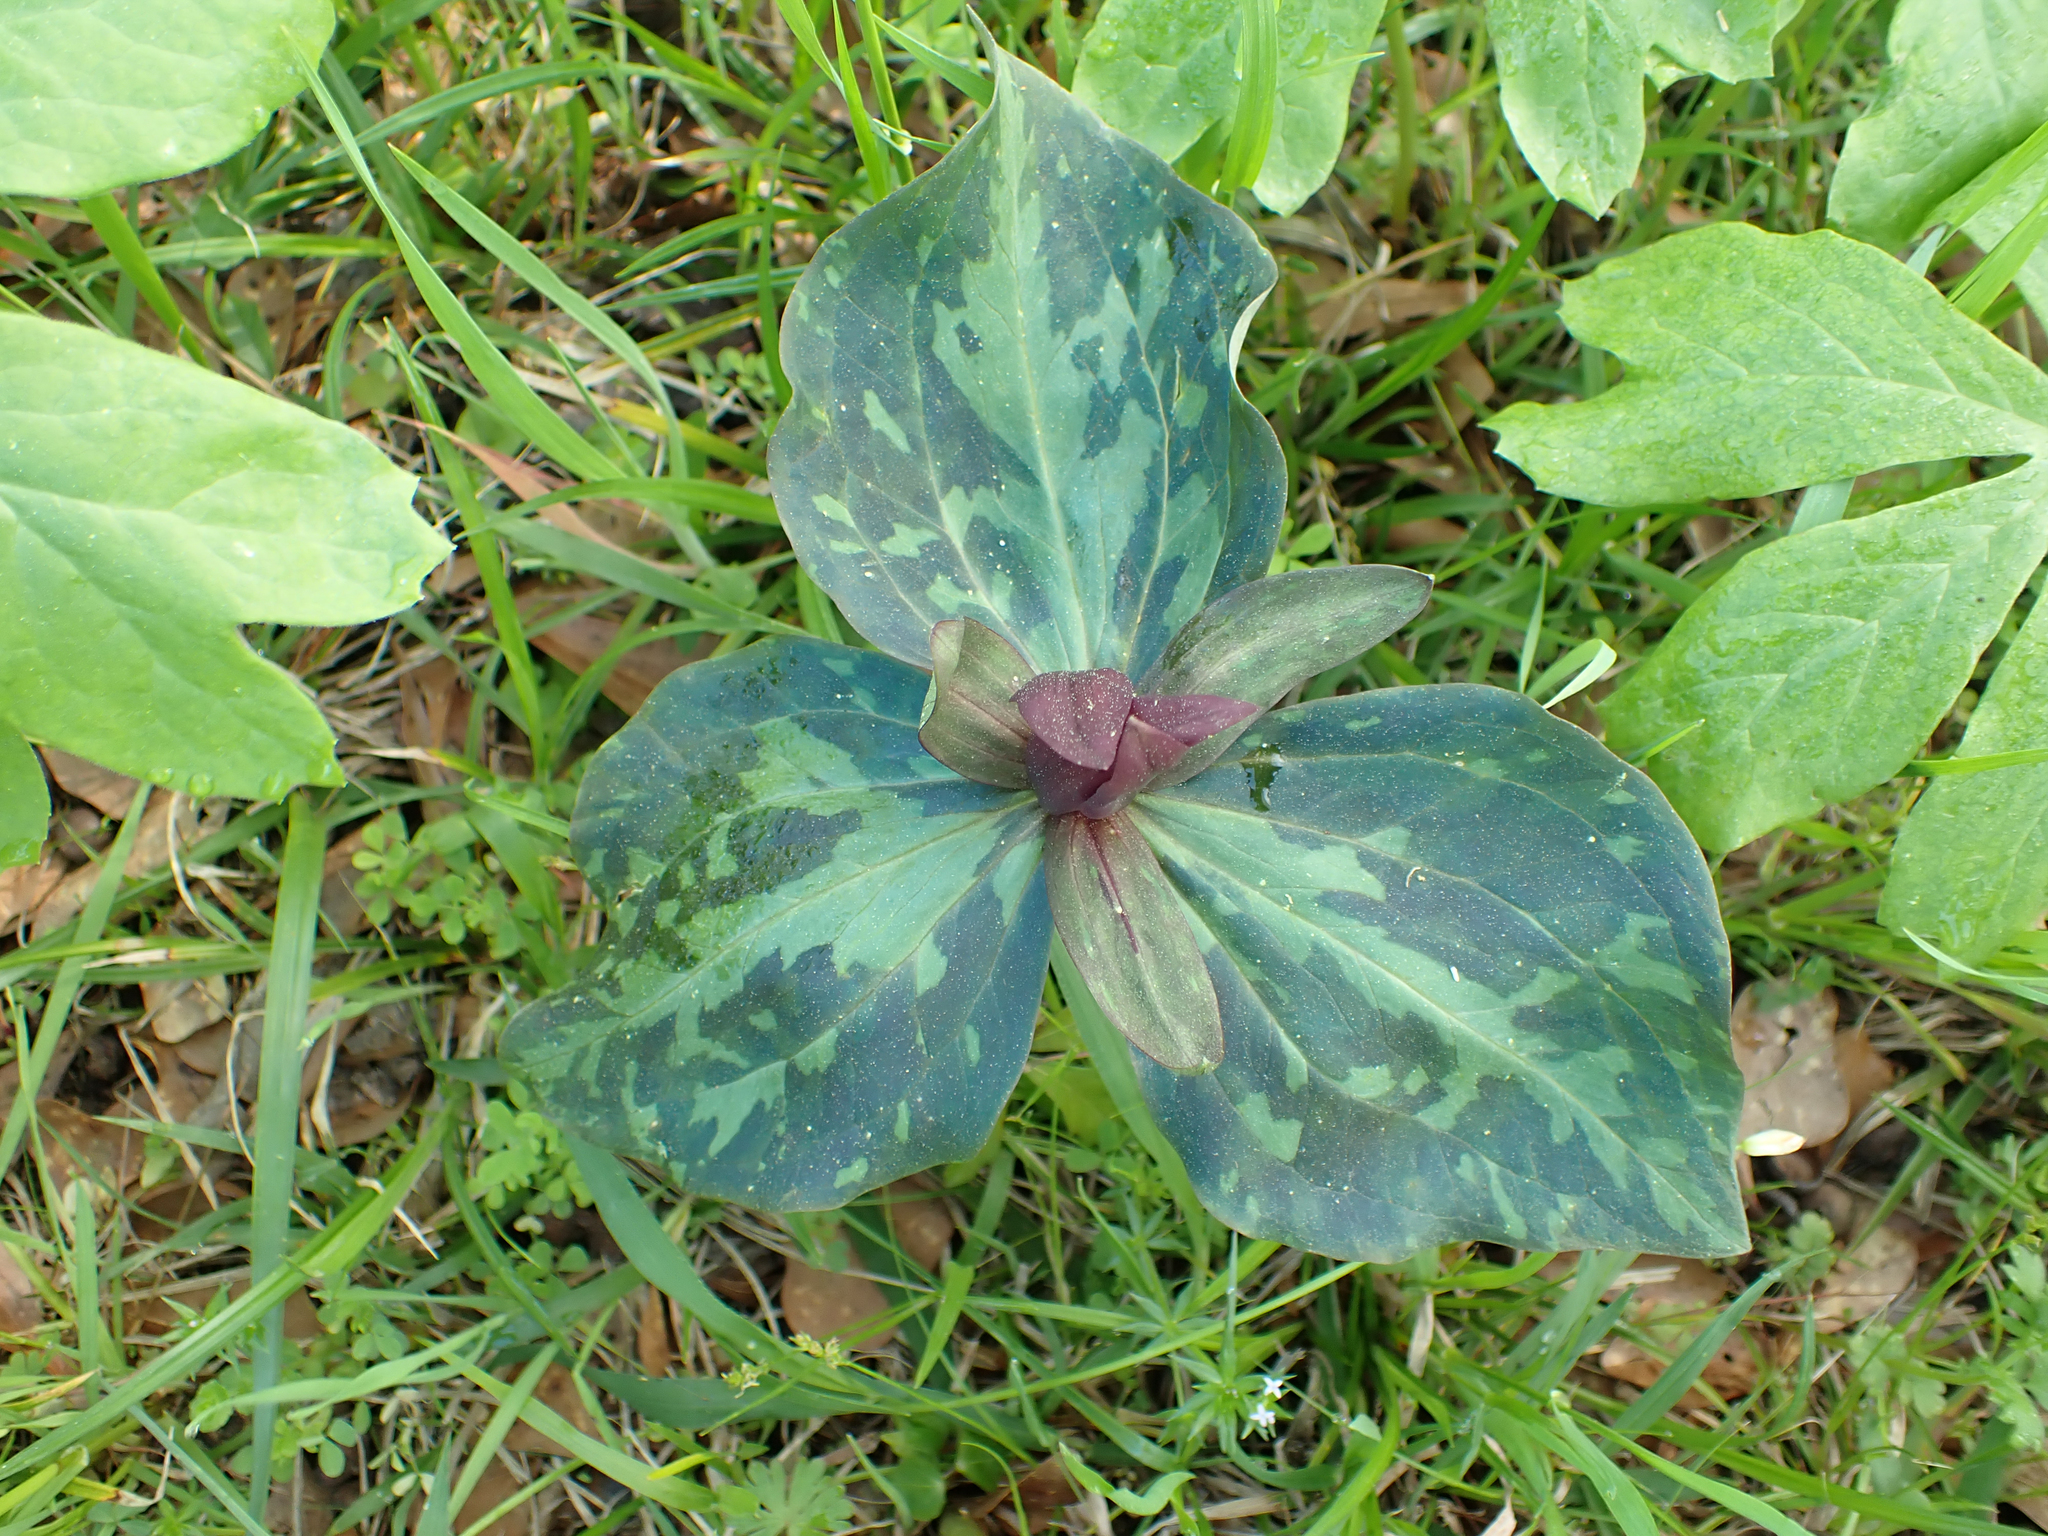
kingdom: Plantae
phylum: Tracheophyta
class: Liliopsida
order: Liliales
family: Melanthiaceae
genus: Trillium
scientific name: Trillium cuneatum
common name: Cuneate trillium
